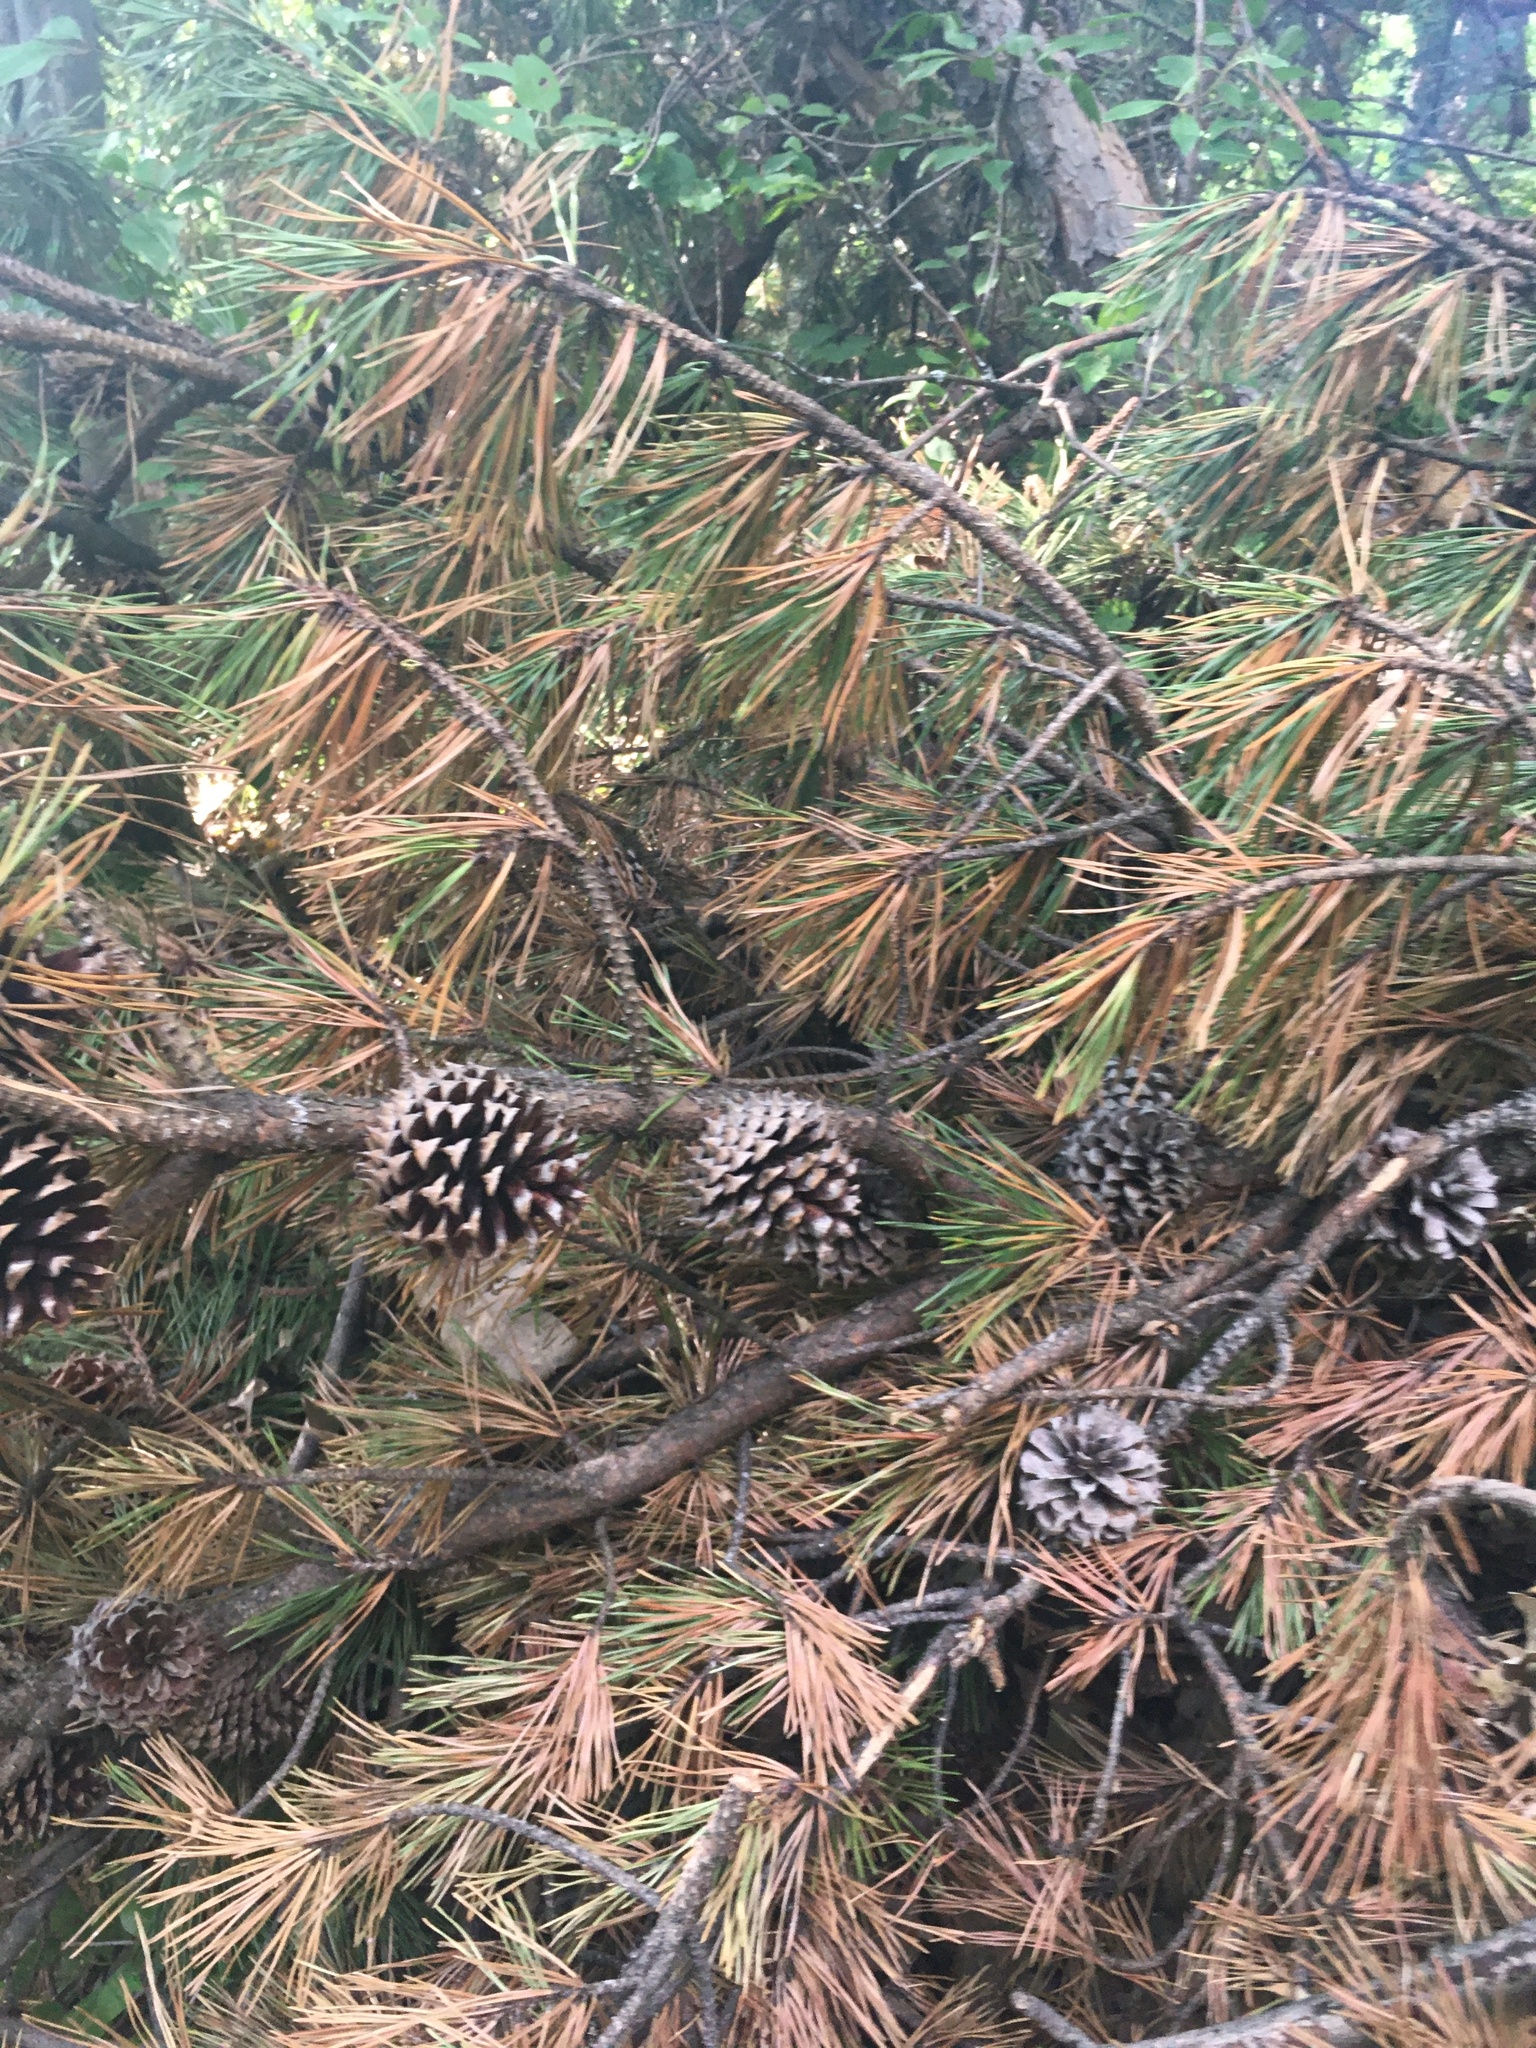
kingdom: Plantae
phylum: Tracheophyta
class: Pinopsida
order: Pinales
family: Pinaceae
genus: Pinus
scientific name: Pinus pungens
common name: Hickory pine
